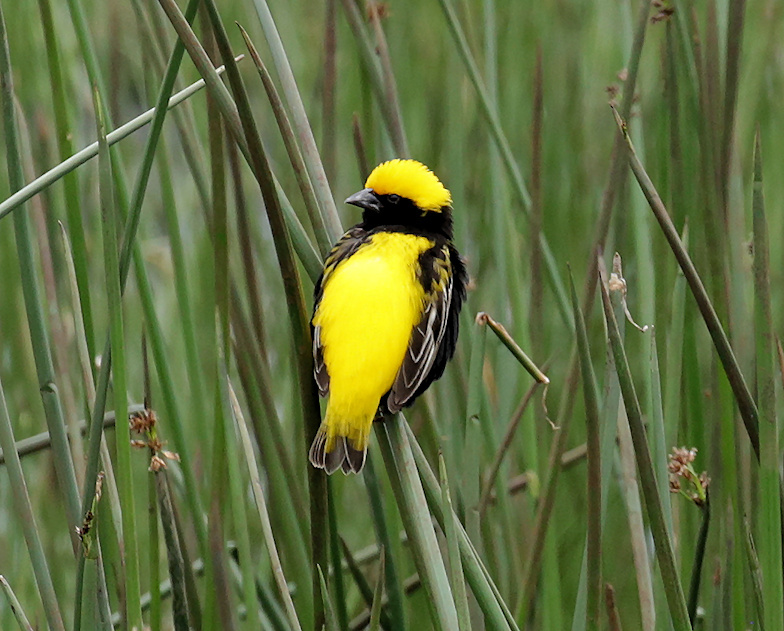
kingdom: Animalia
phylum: Chordata
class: Aves
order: Passeriformes
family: Ploceidae
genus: Euplectes
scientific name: Euplectes afer
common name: Yellow-crowned bishop
